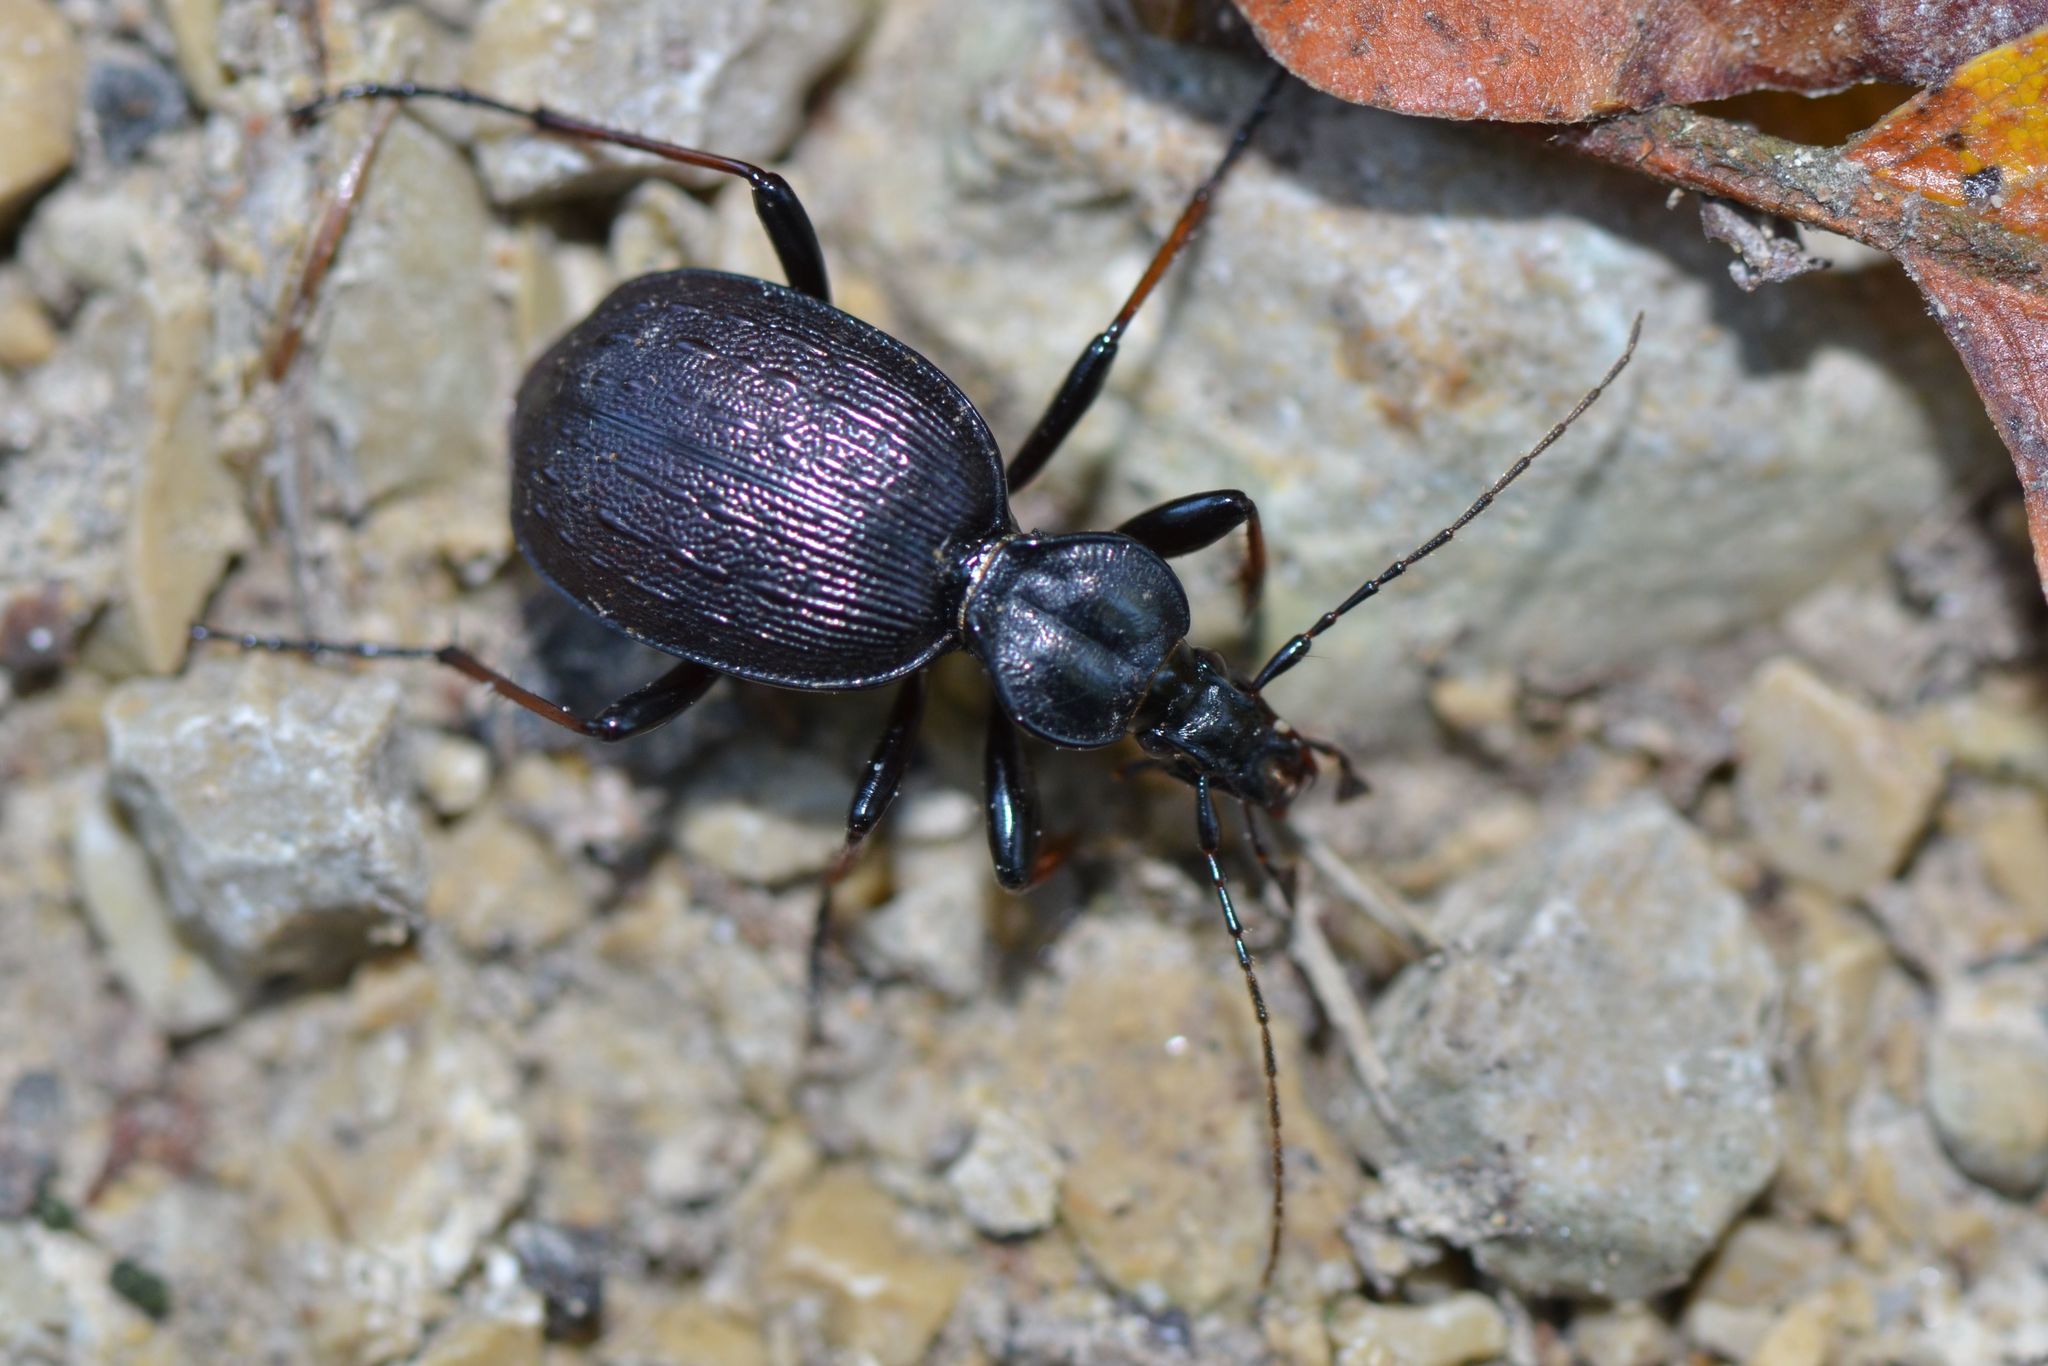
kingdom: Animalia
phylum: Arthropoda
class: Insecta
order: Coleoptera
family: Carabidae
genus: Cychrus
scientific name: Cychrus attenuatus
